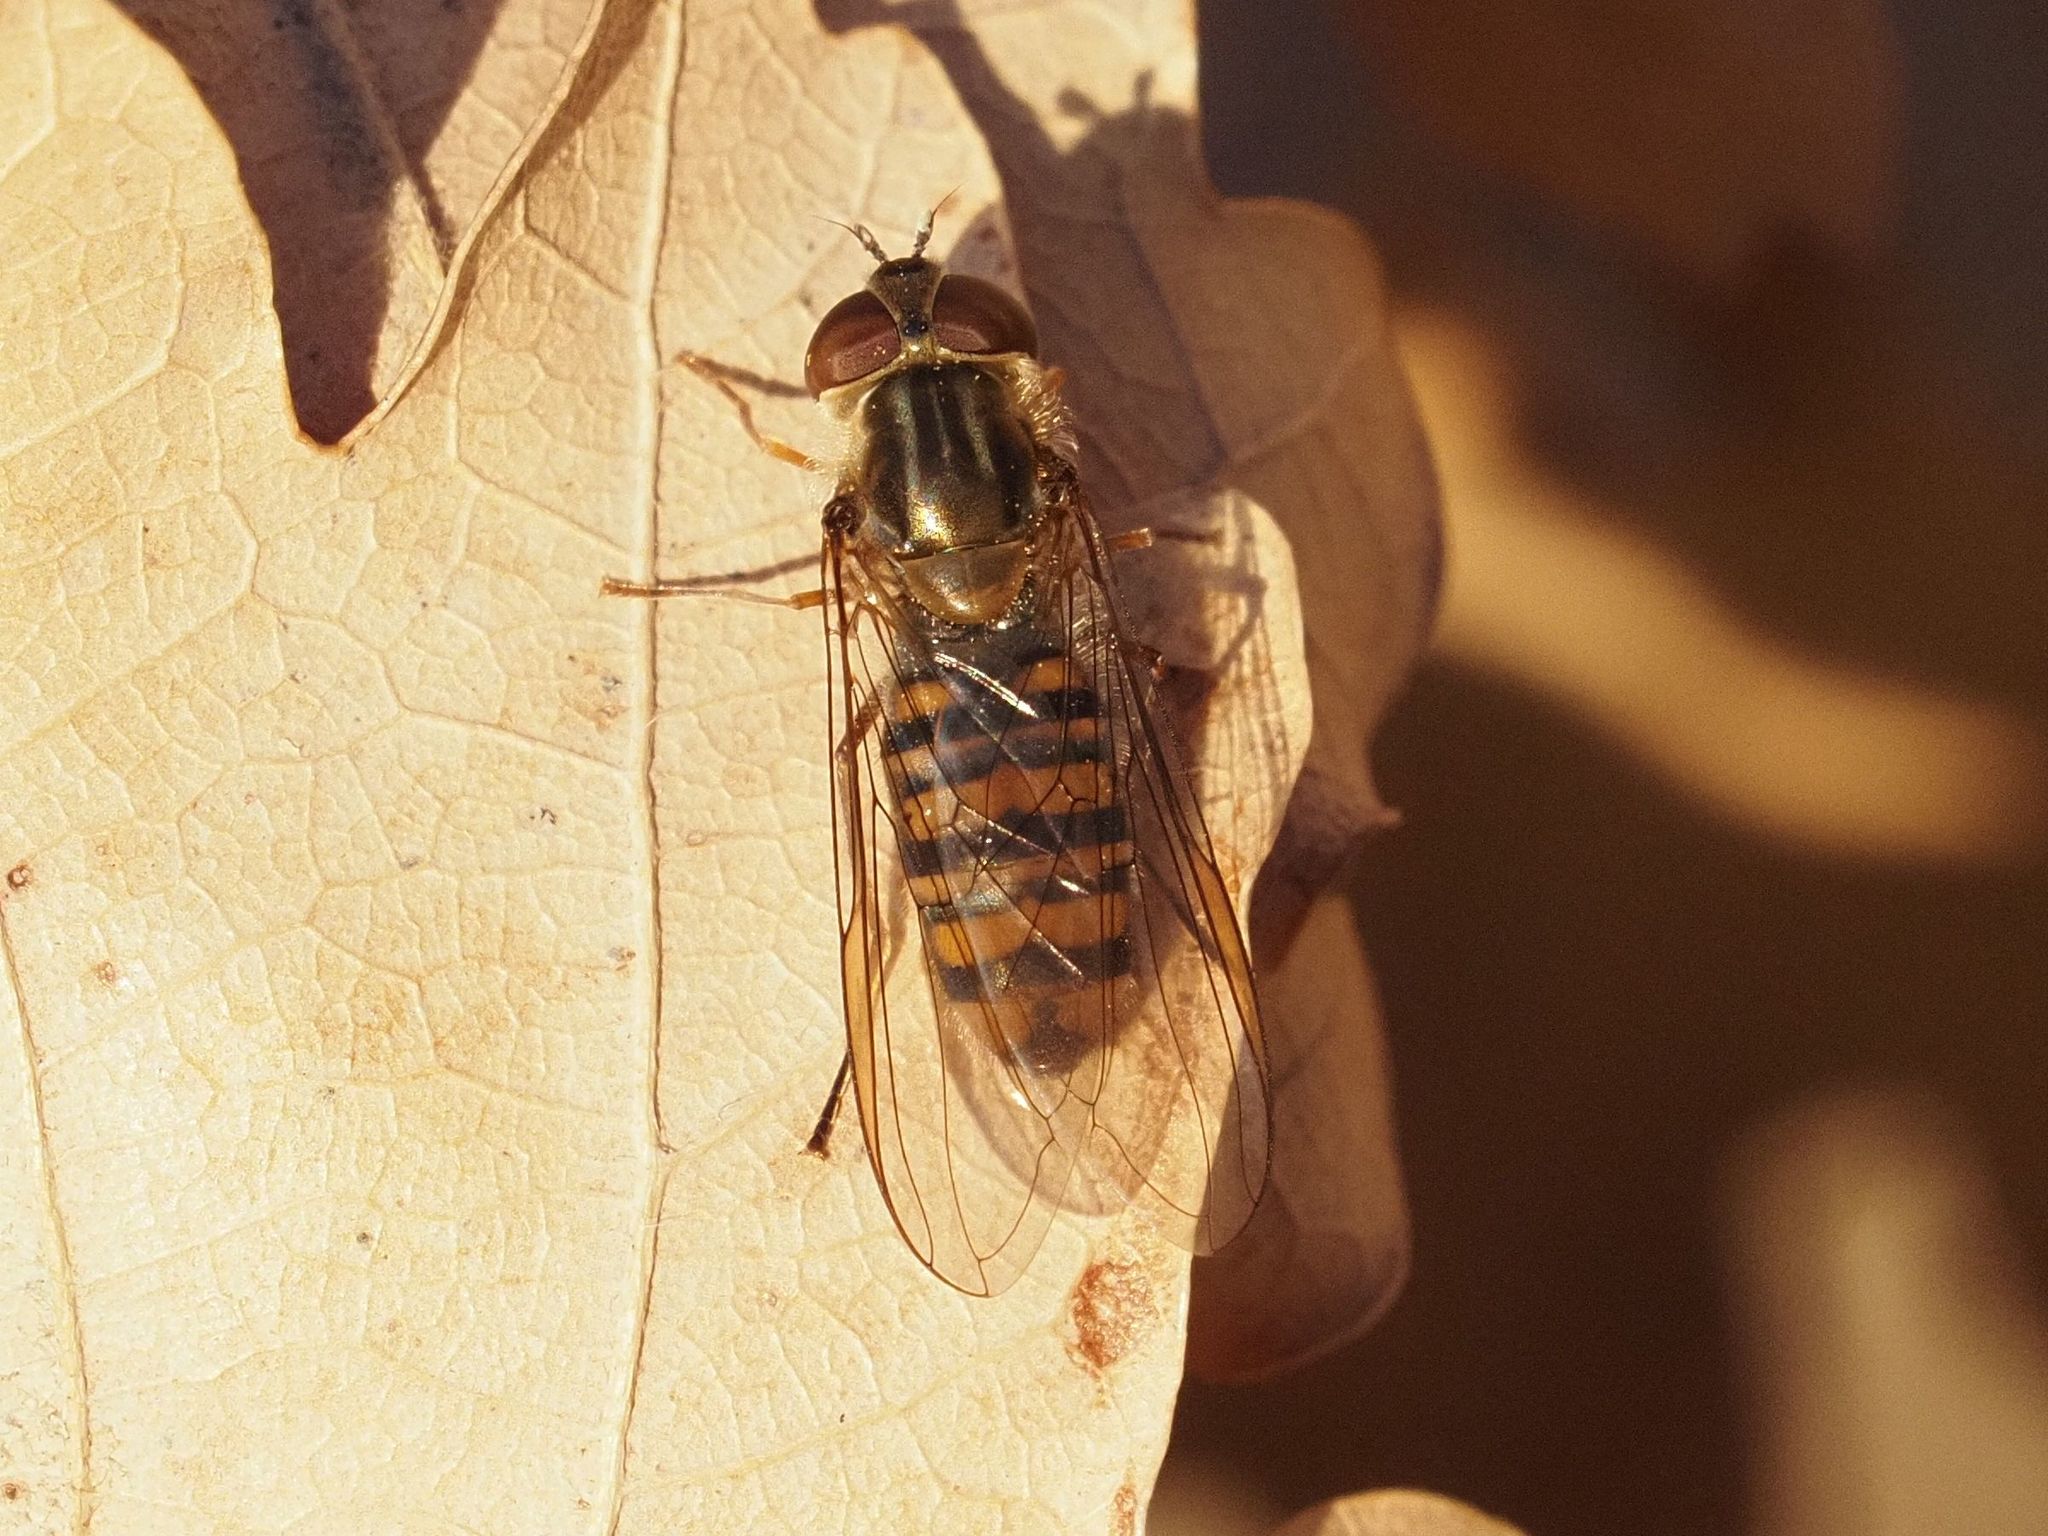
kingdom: Animalia
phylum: Arthropoda
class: Insecta
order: Diptera
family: Syrphidae
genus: Episyrphus
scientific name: Episyrphus balteatus
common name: Marmalade hoverfly
